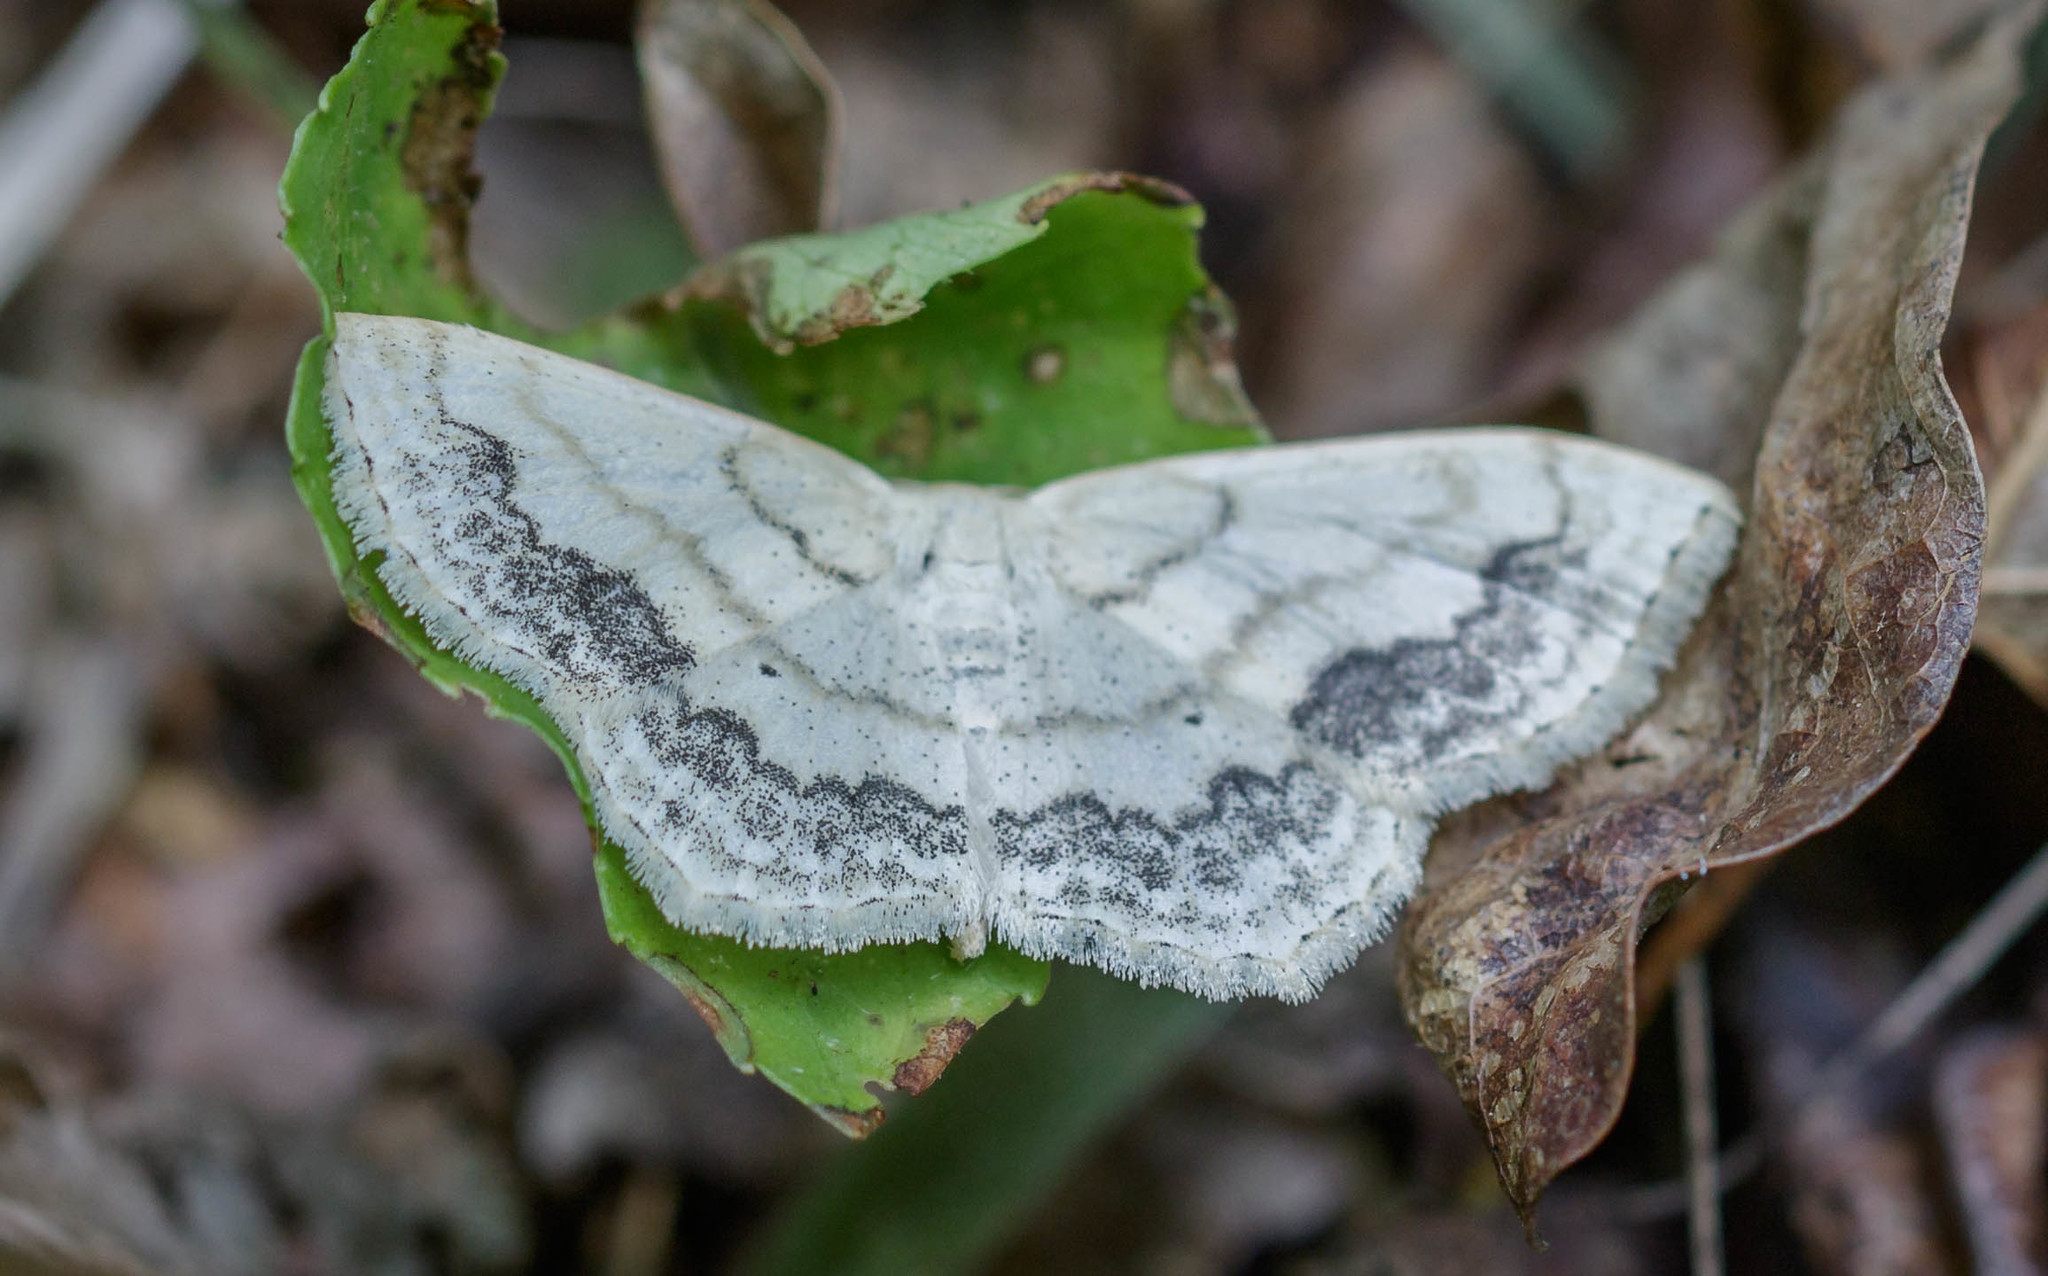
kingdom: Animalia
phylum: Arthropoda
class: Insecta
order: Lepidoptera
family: Geometridae
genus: Scopula
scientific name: Scopula limboundata
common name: Large lace border
